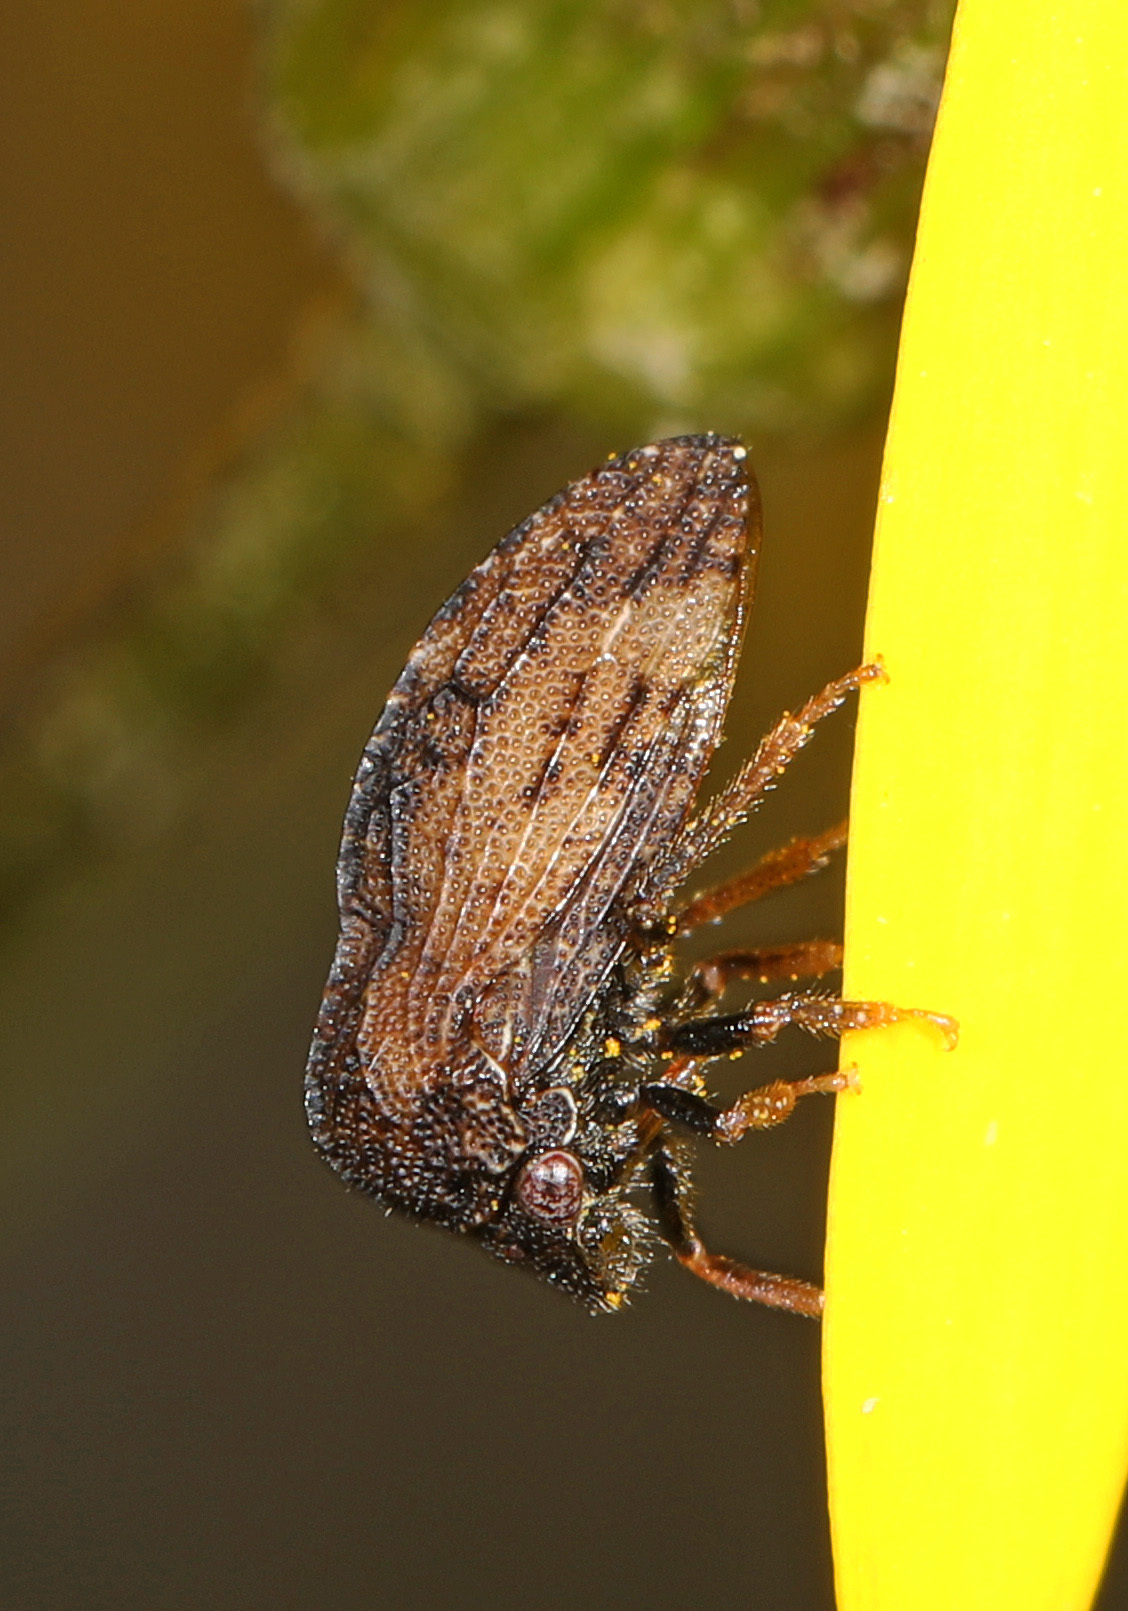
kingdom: Animalia
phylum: Arthropoda
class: Insecta
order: Hemiptera
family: Membracidae
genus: Publilia
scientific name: Publilia concava
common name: Aster treehopper
